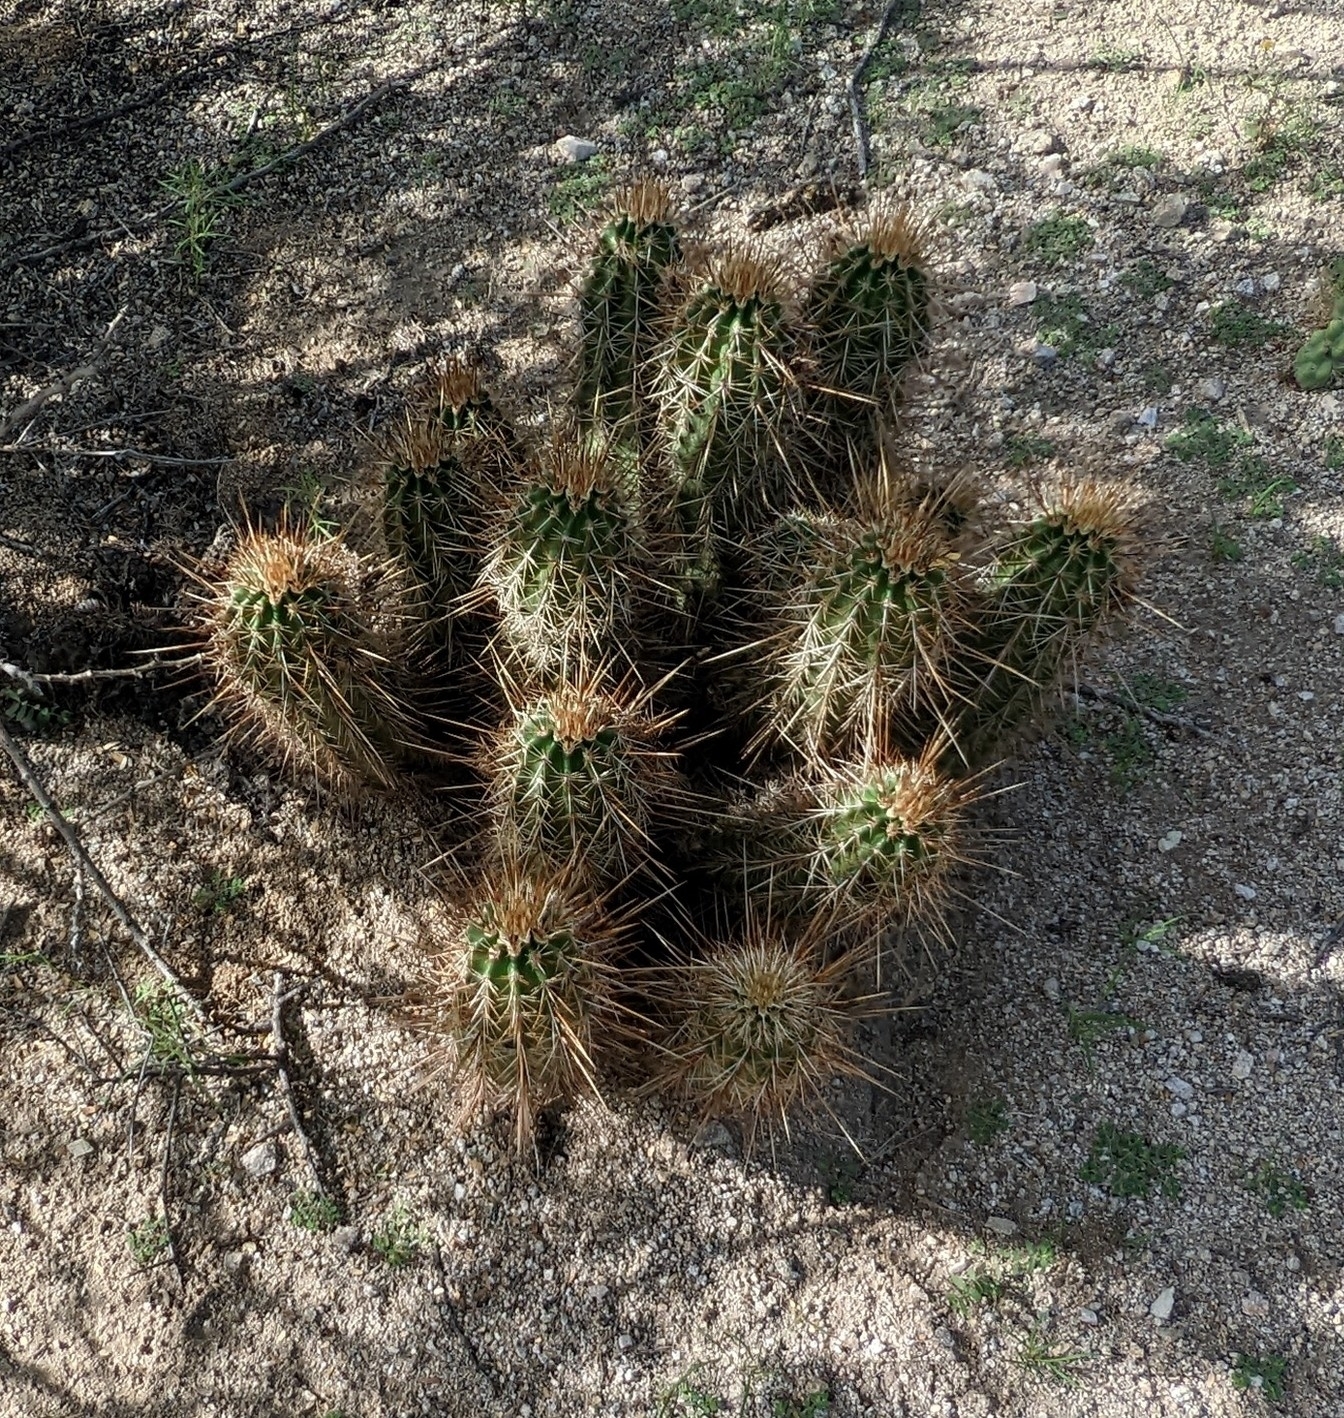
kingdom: Plantae
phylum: Tracheophyta
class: Magnoliopsida
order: Caryophyllales
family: Cactaceae
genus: Echinocereus
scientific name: Echinocereus engelmannii
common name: Engelmann's hedgehog cactus
